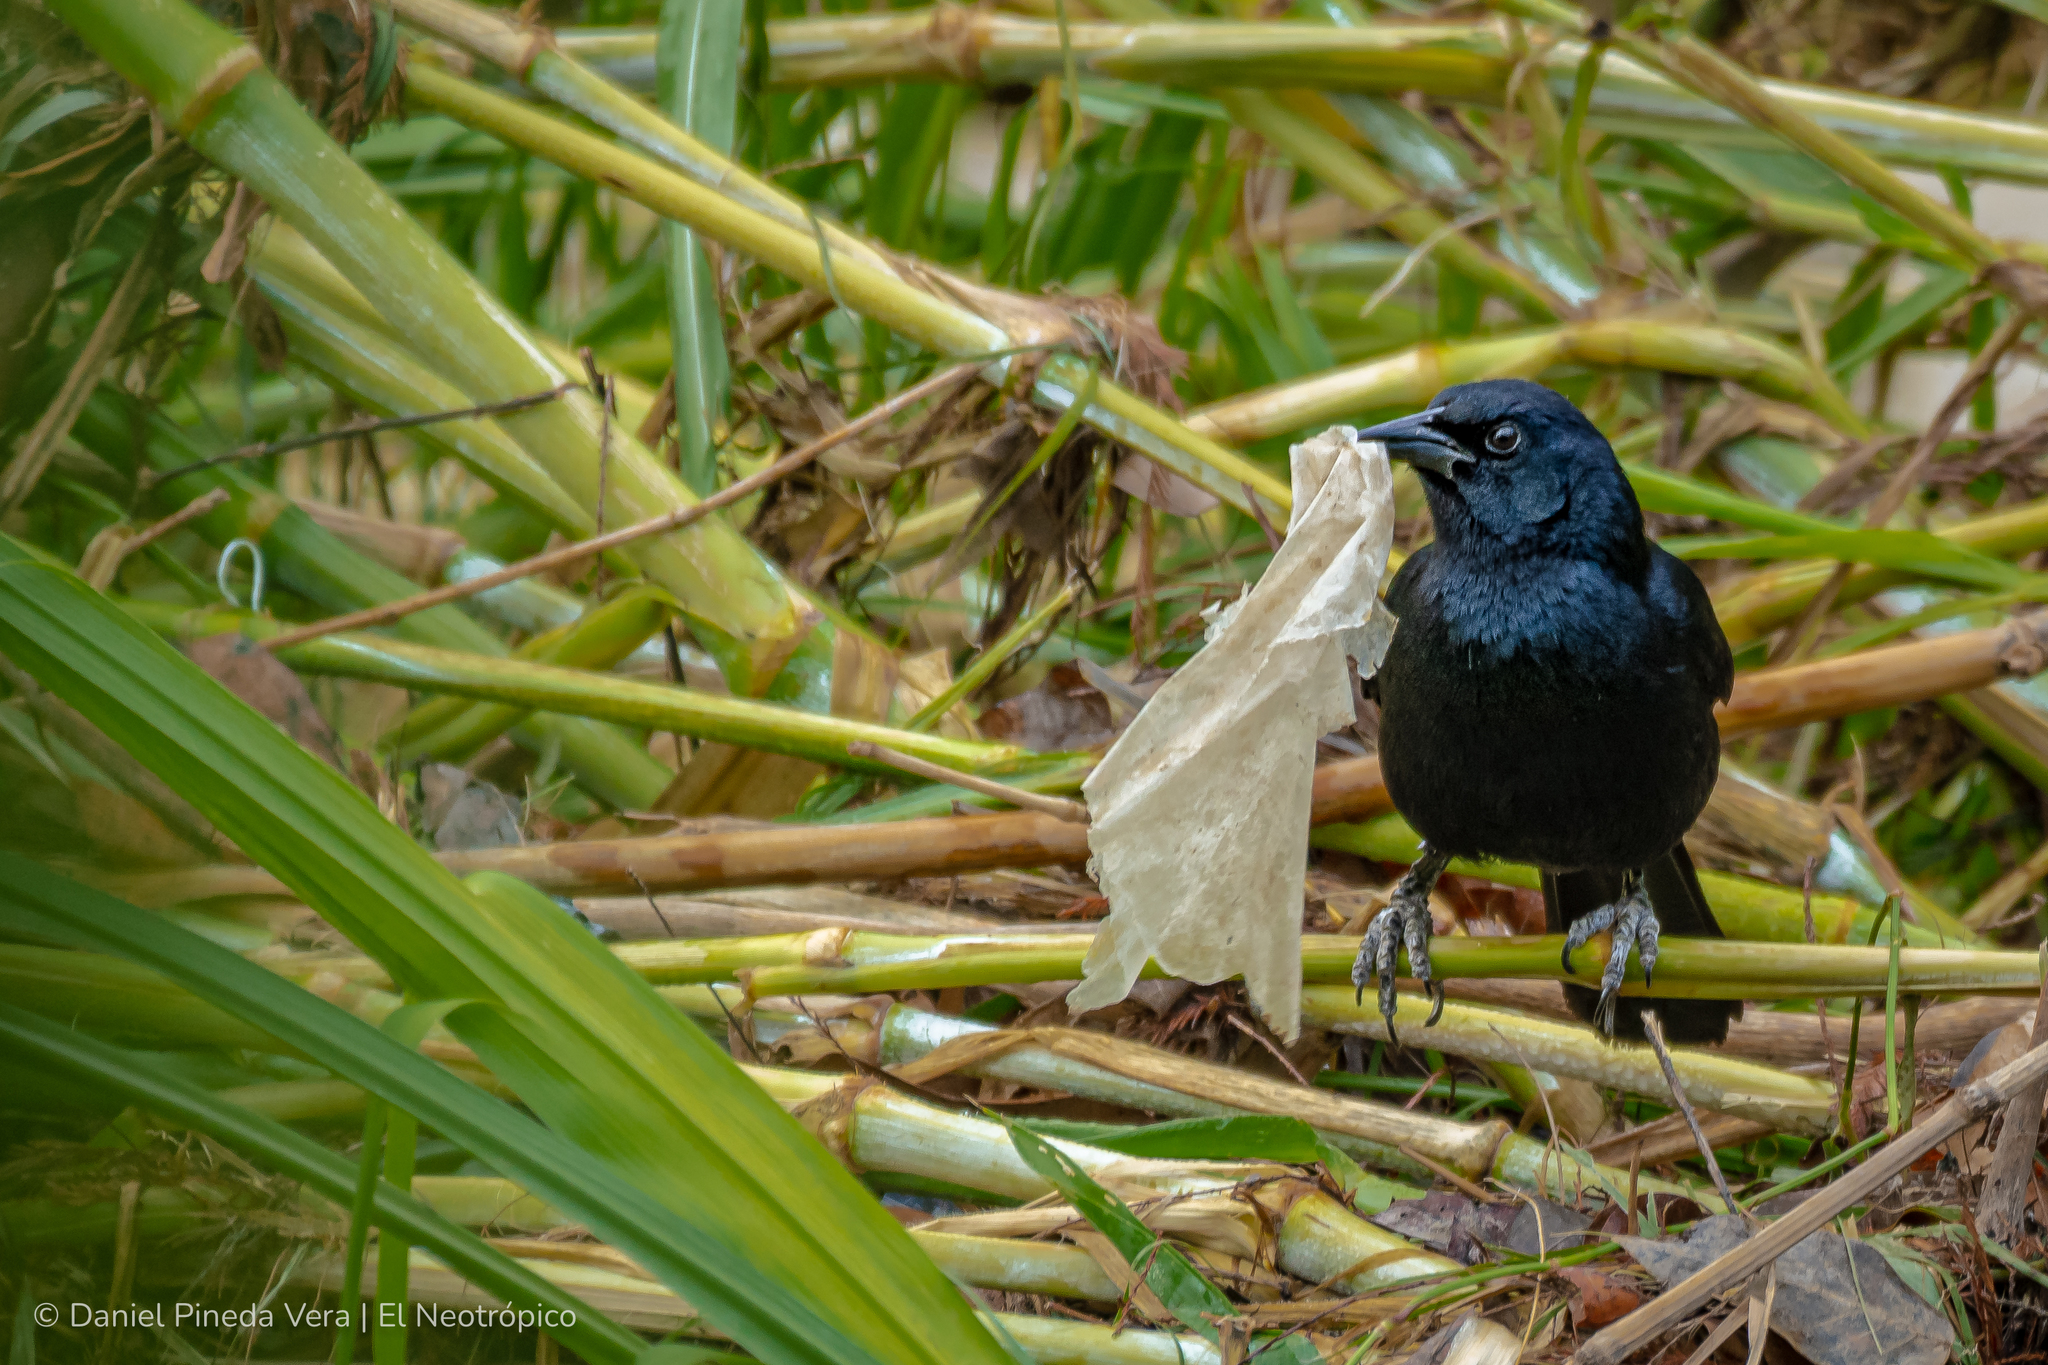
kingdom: Animalia
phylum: Chordata
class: Aves
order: Passeriformes
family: Icteridae
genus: Dives
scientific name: Dives dives
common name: Melodious blackbird
